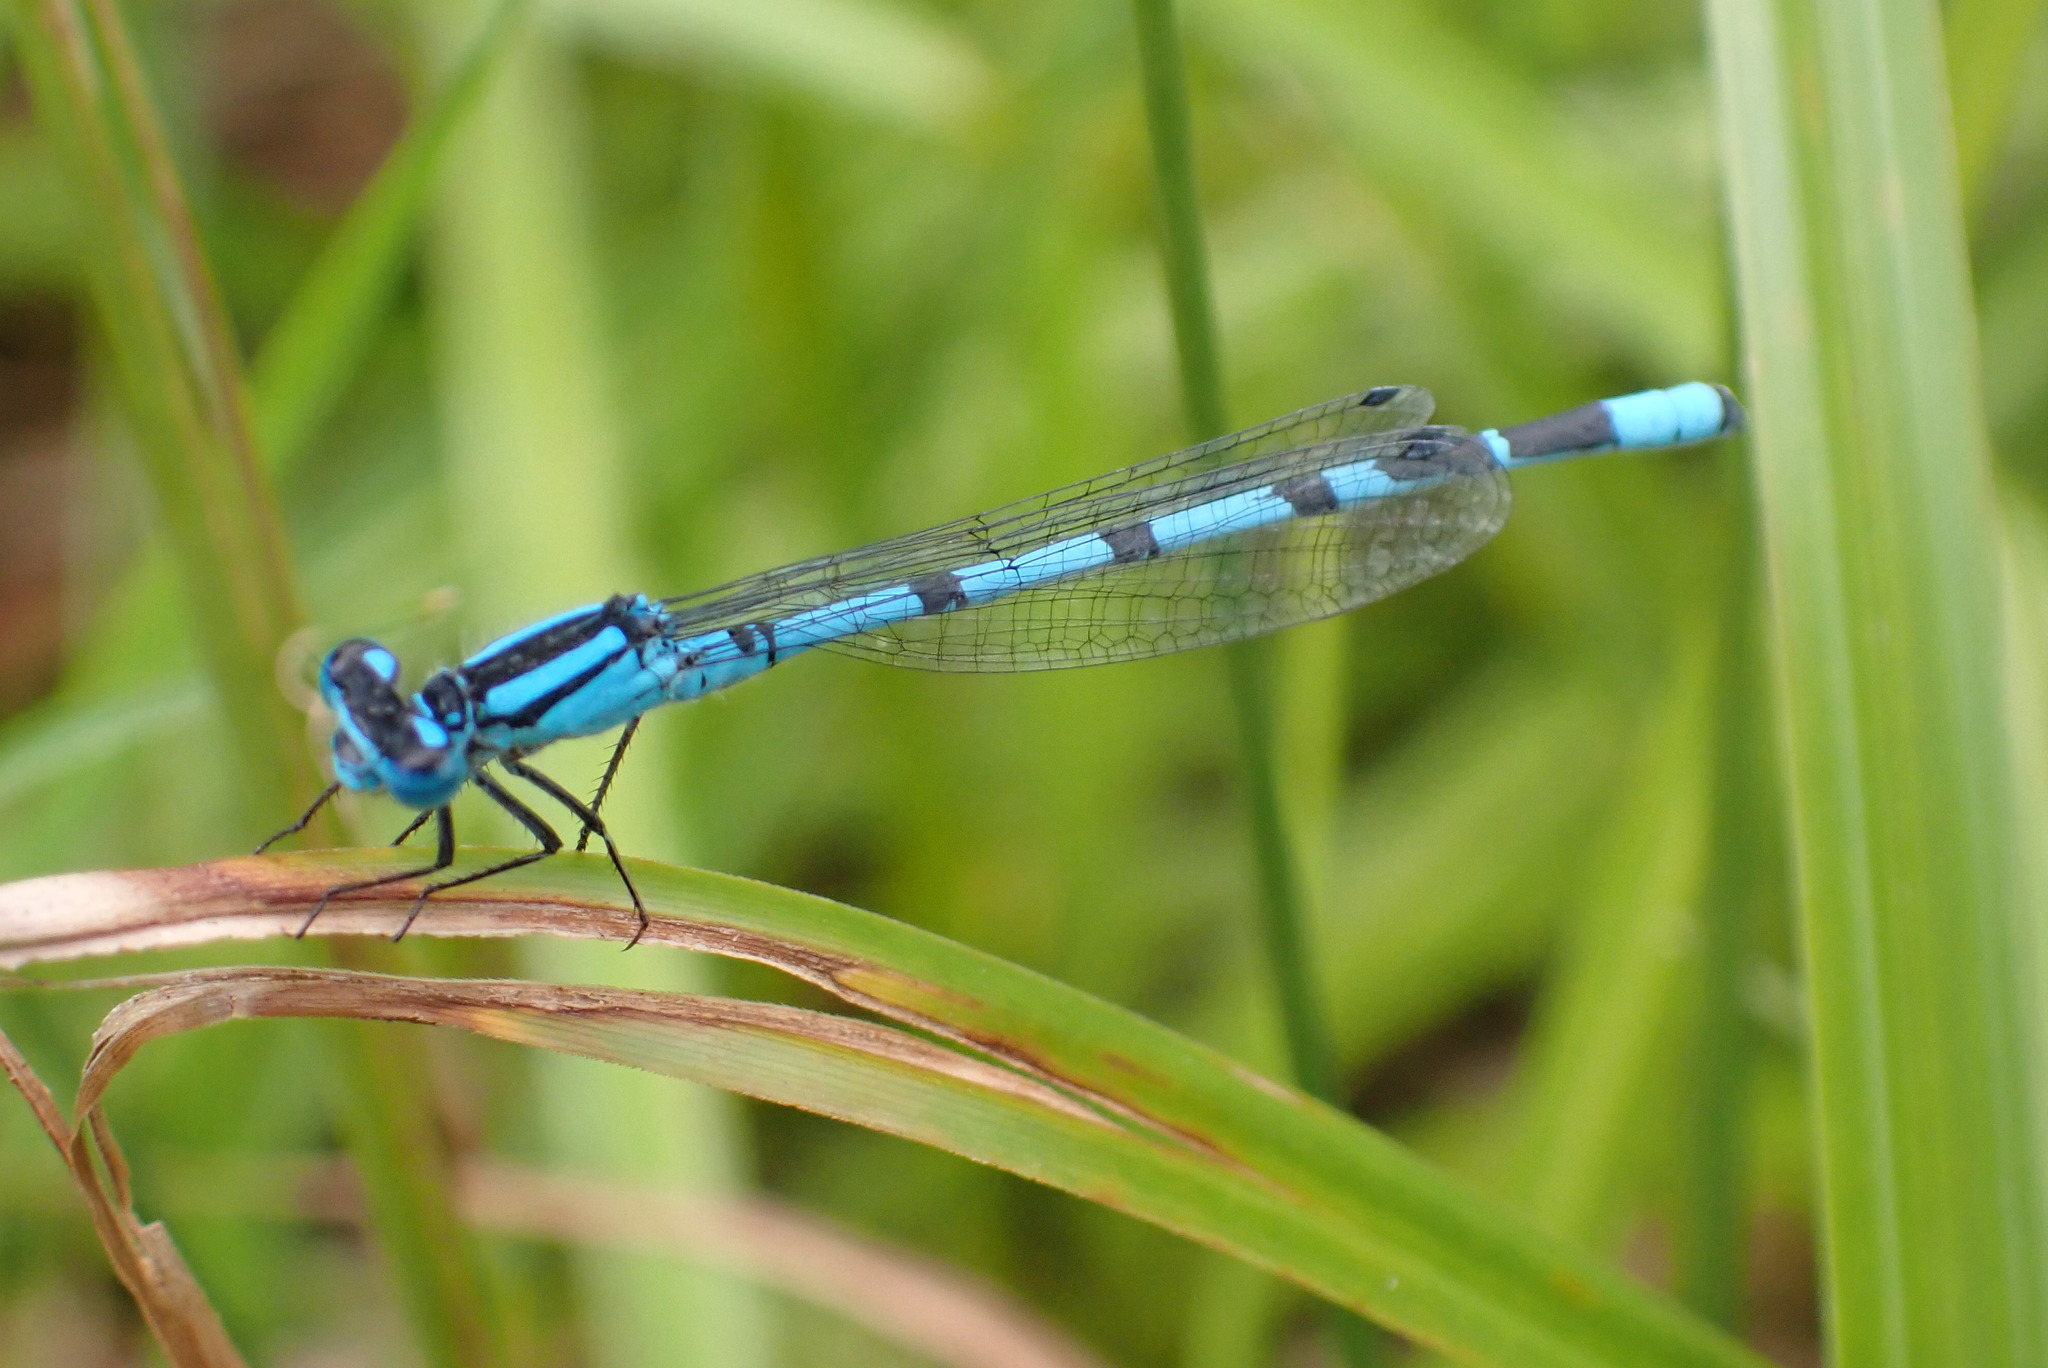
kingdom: Animalia
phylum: Arthropoda
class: Insecta
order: Odonata
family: Coenagrionidae
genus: Enallagma
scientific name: Enallagma cyathigerum
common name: Common blue damselfly
